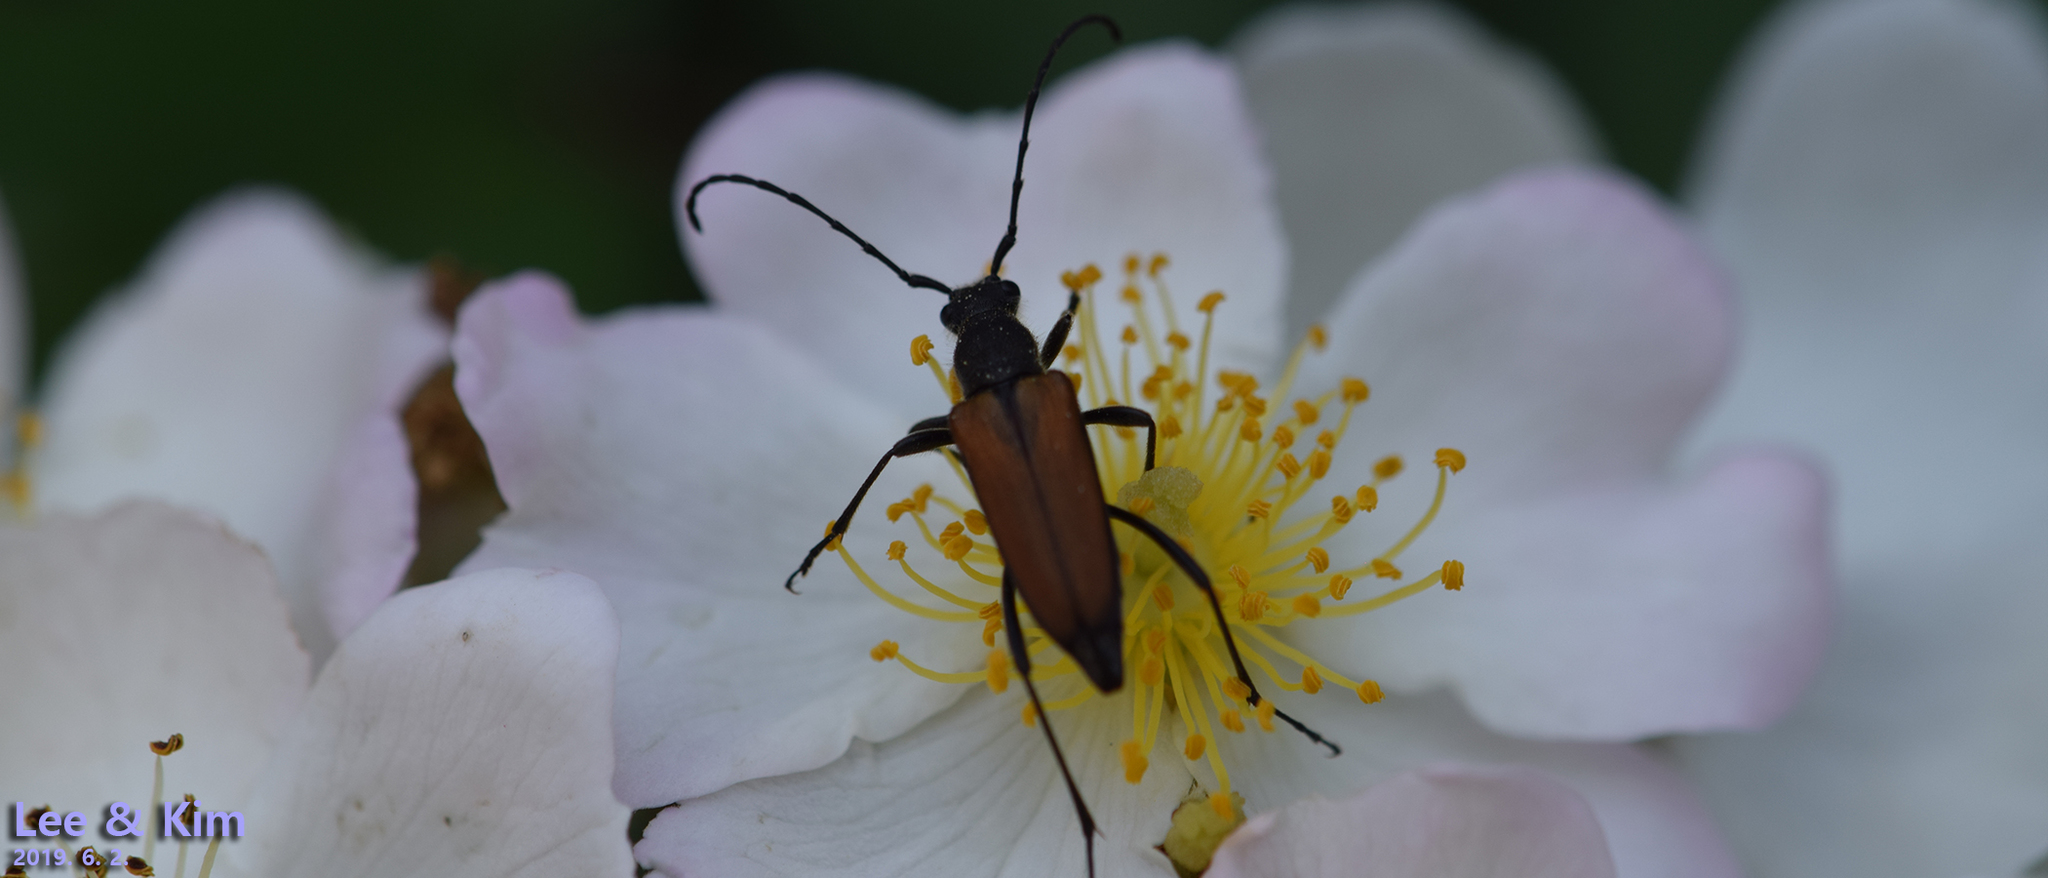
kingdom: Animalia
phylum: Arthropoda
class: Insecta
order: Coleoptera
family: Cerambycidae
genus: Anastrangalia
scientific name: Anastrangalia reyi
